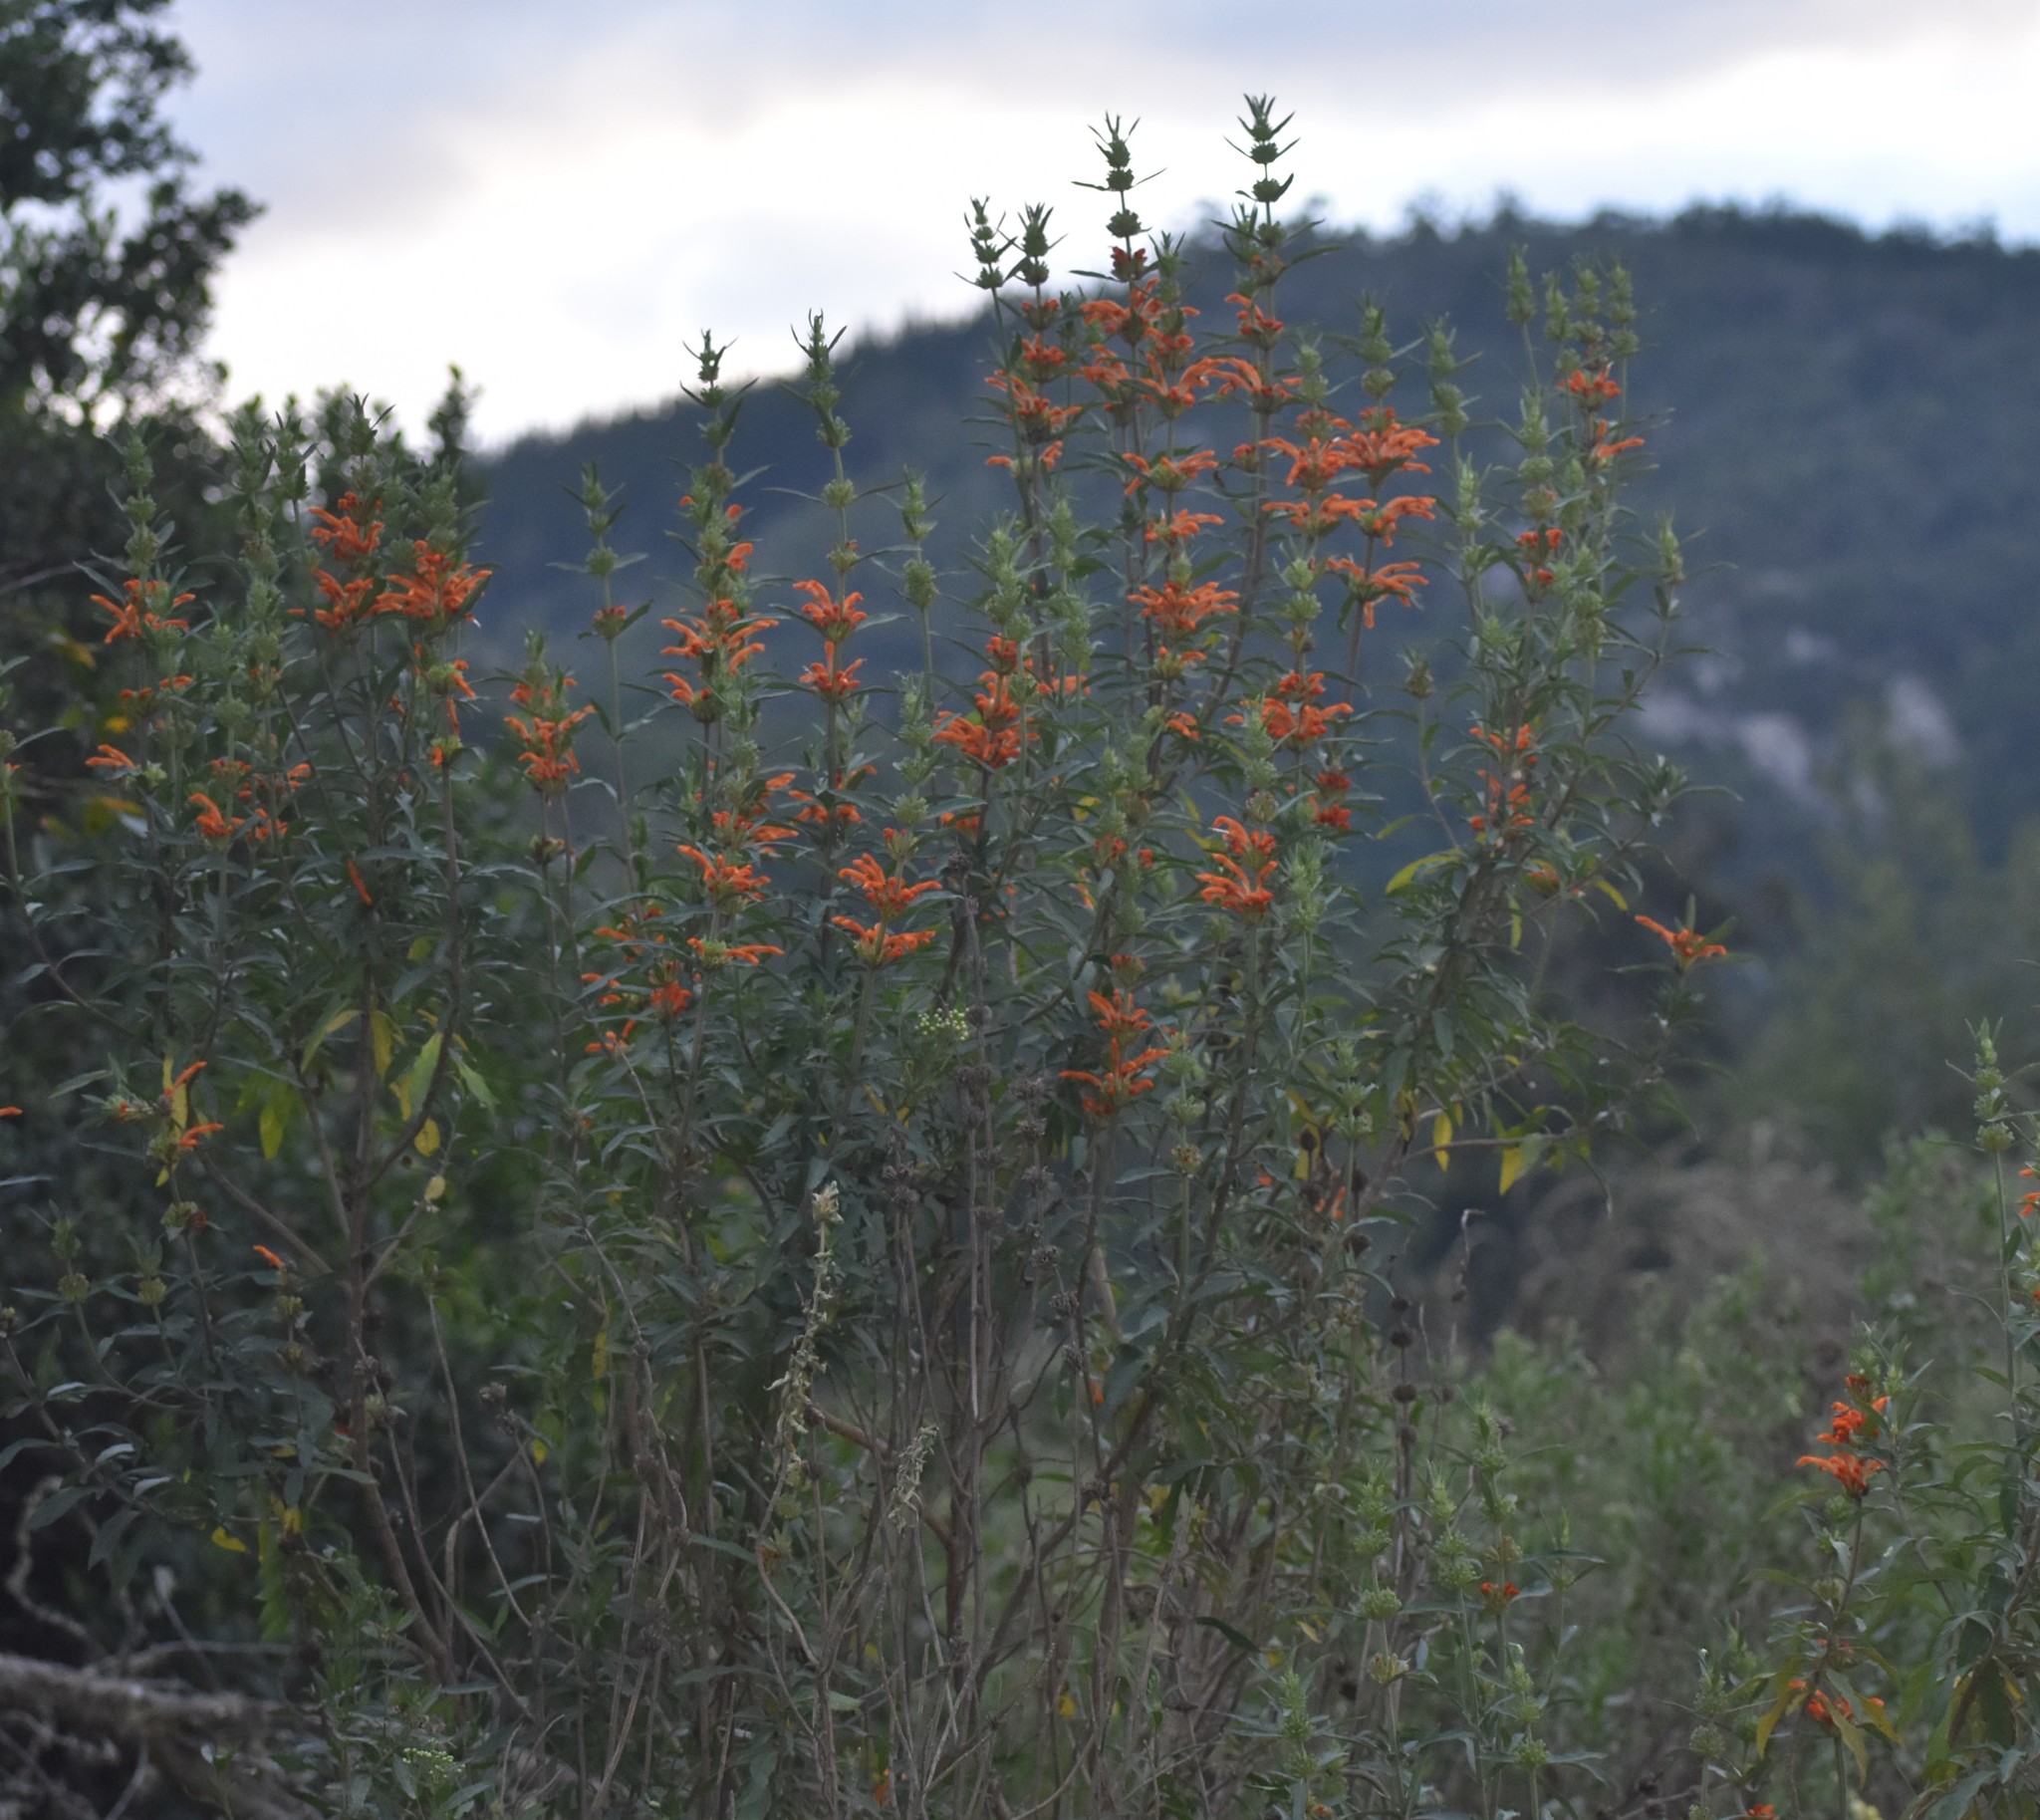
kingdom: Plantae
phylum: Tracheophyta
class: Magnoliopsida
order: Lamiales
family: Lamiaceae
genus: Leonotis
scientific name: Leonotis leonurus
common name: Lion's ear
